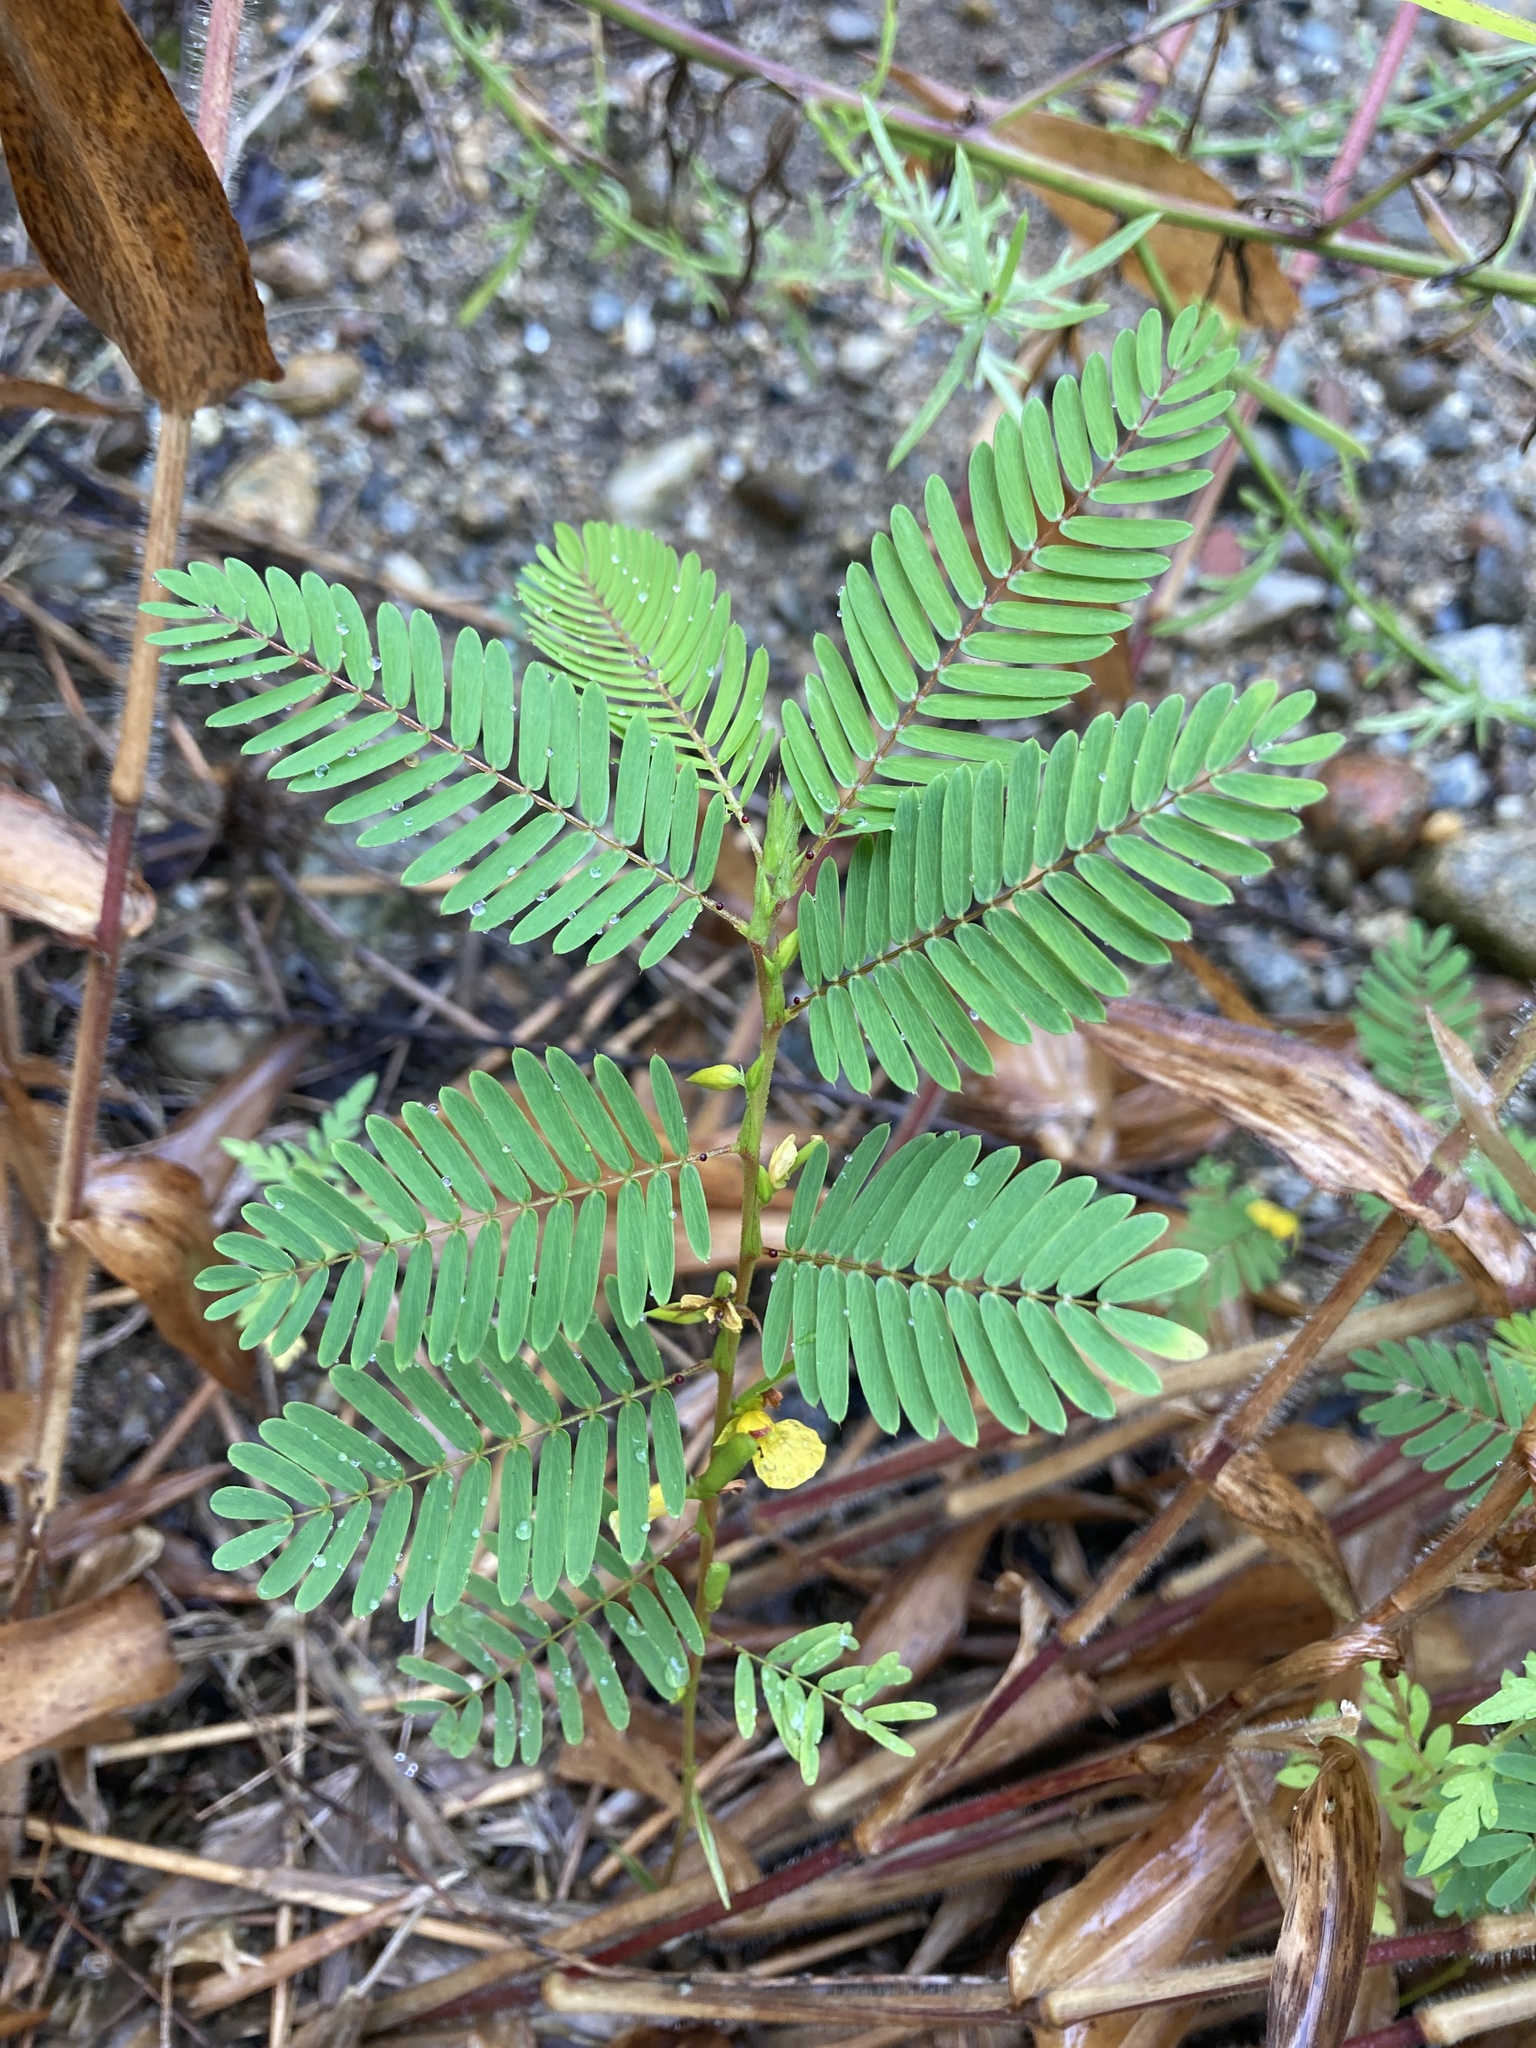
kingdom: Plantae
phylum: Tracheophyta
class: Magnoliopsida
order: Fabales
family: Fabaceae
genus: Chamaecrista
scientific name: Chamaecrista nictitans
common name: Sensitive cassia
